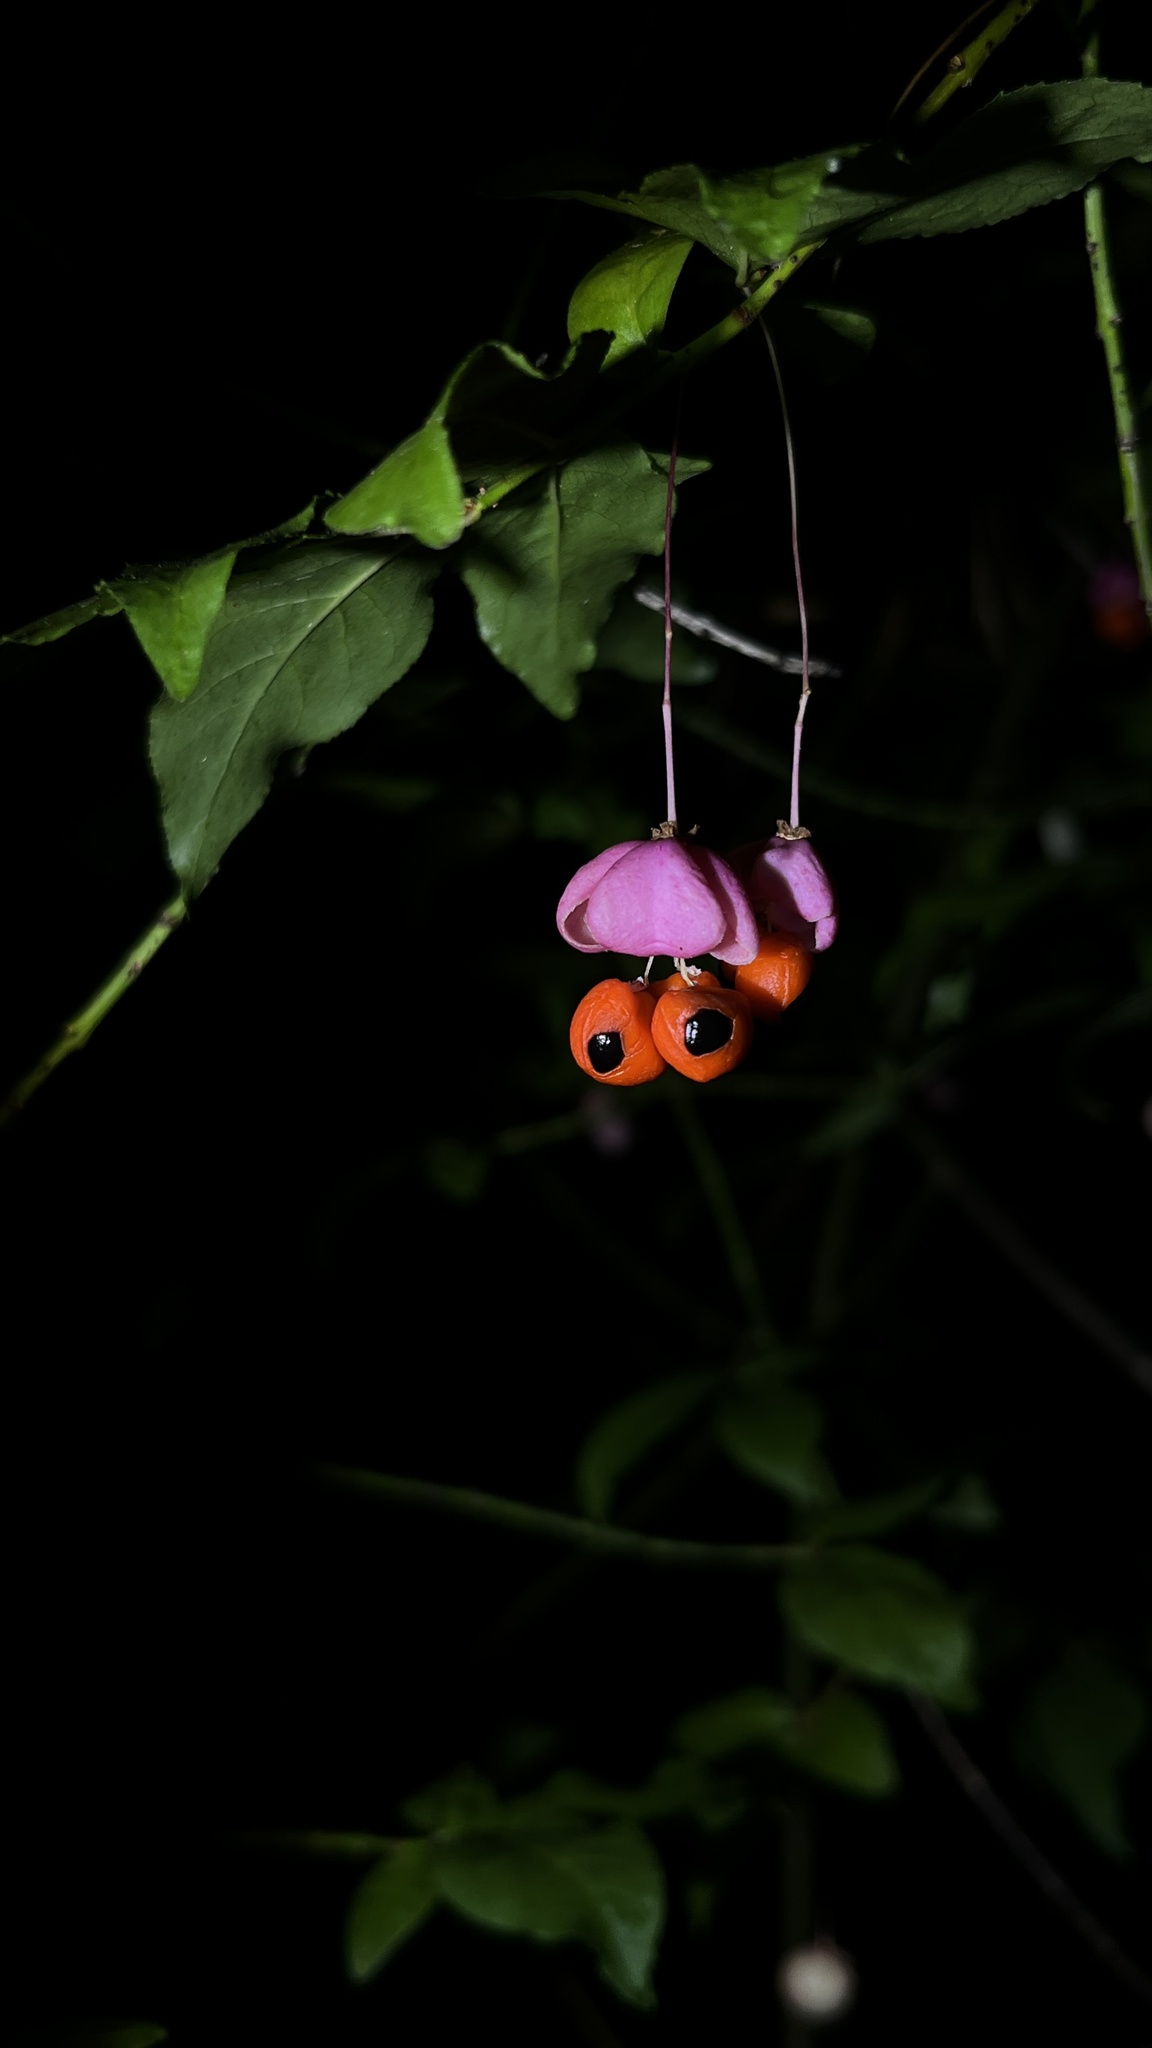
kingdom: Plantae
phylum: Tracheophyta
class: Magnoliopsida
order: Celastrales
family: Celastraceae
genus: Euonymus
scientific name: Euonymus verrucosus
